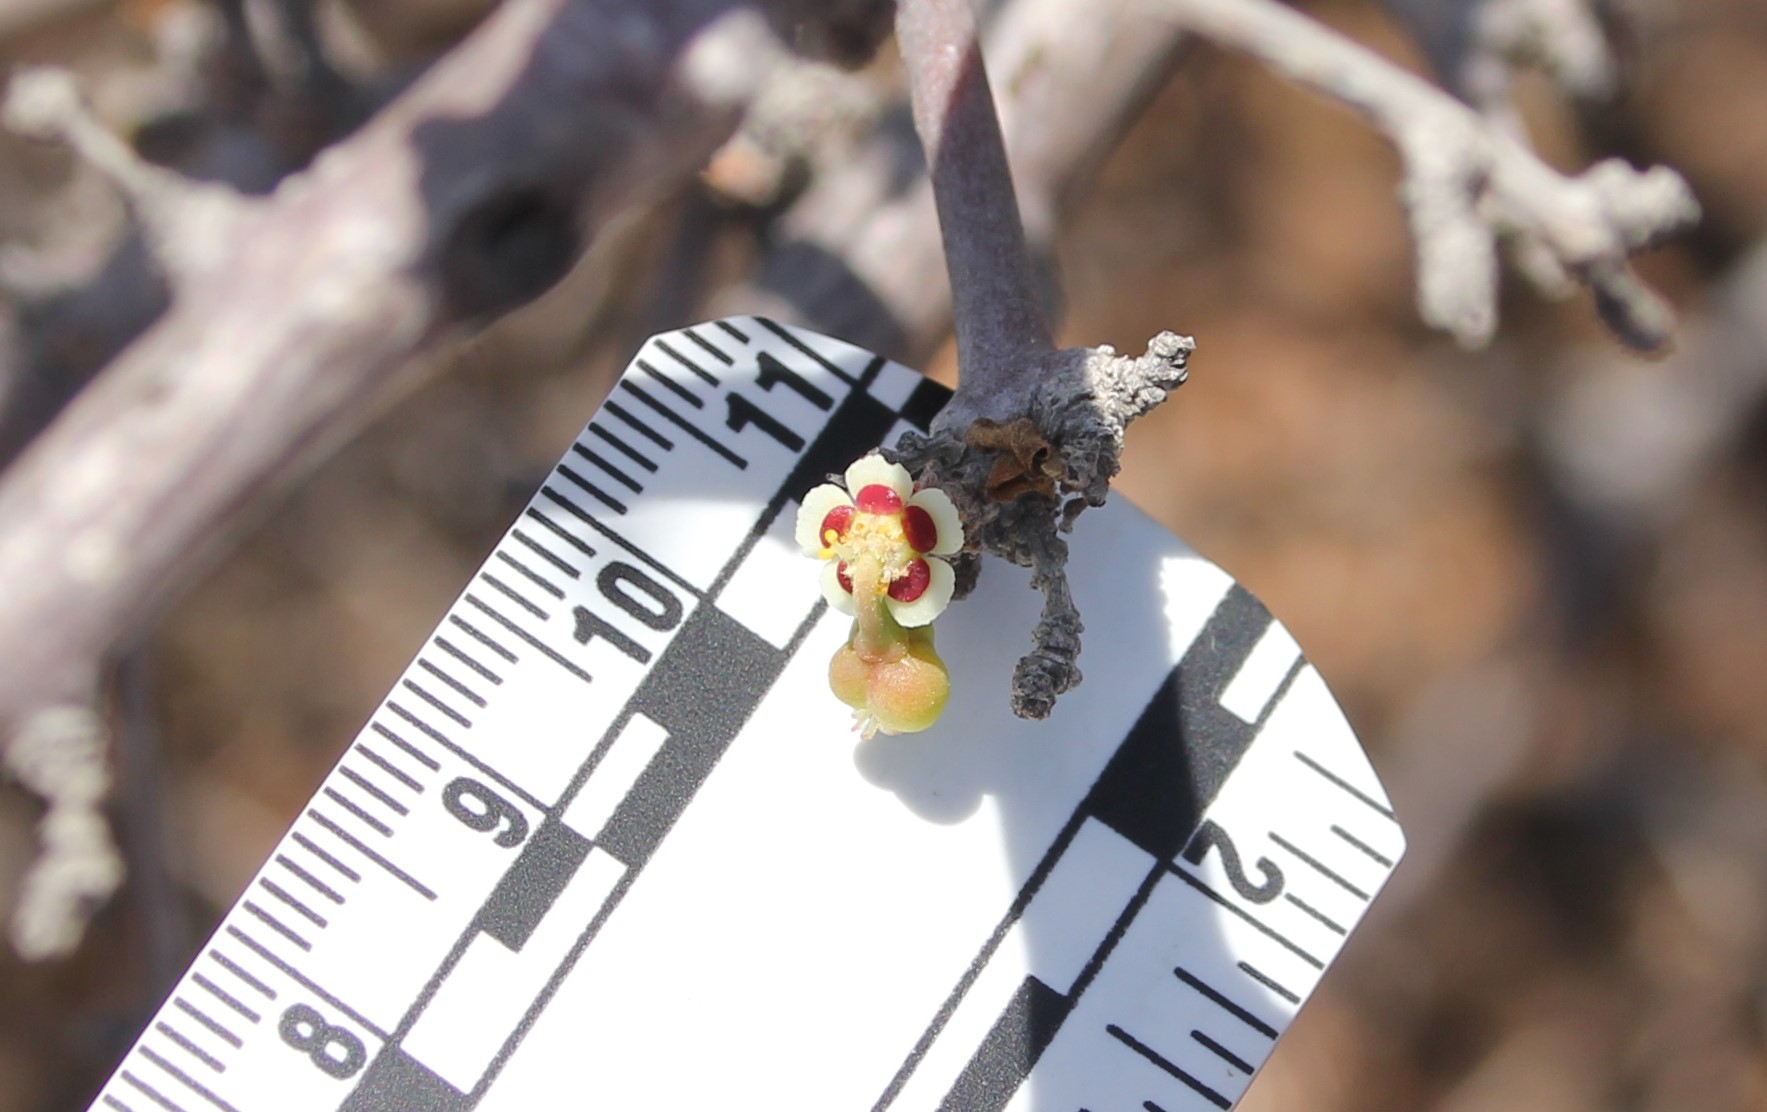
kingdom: Plantae
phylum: Tracheophyta
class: Magnoliopsida
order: Malpighiales
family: Euphorbiaceae
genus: Euphorbia
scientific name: Euphorbia misera
